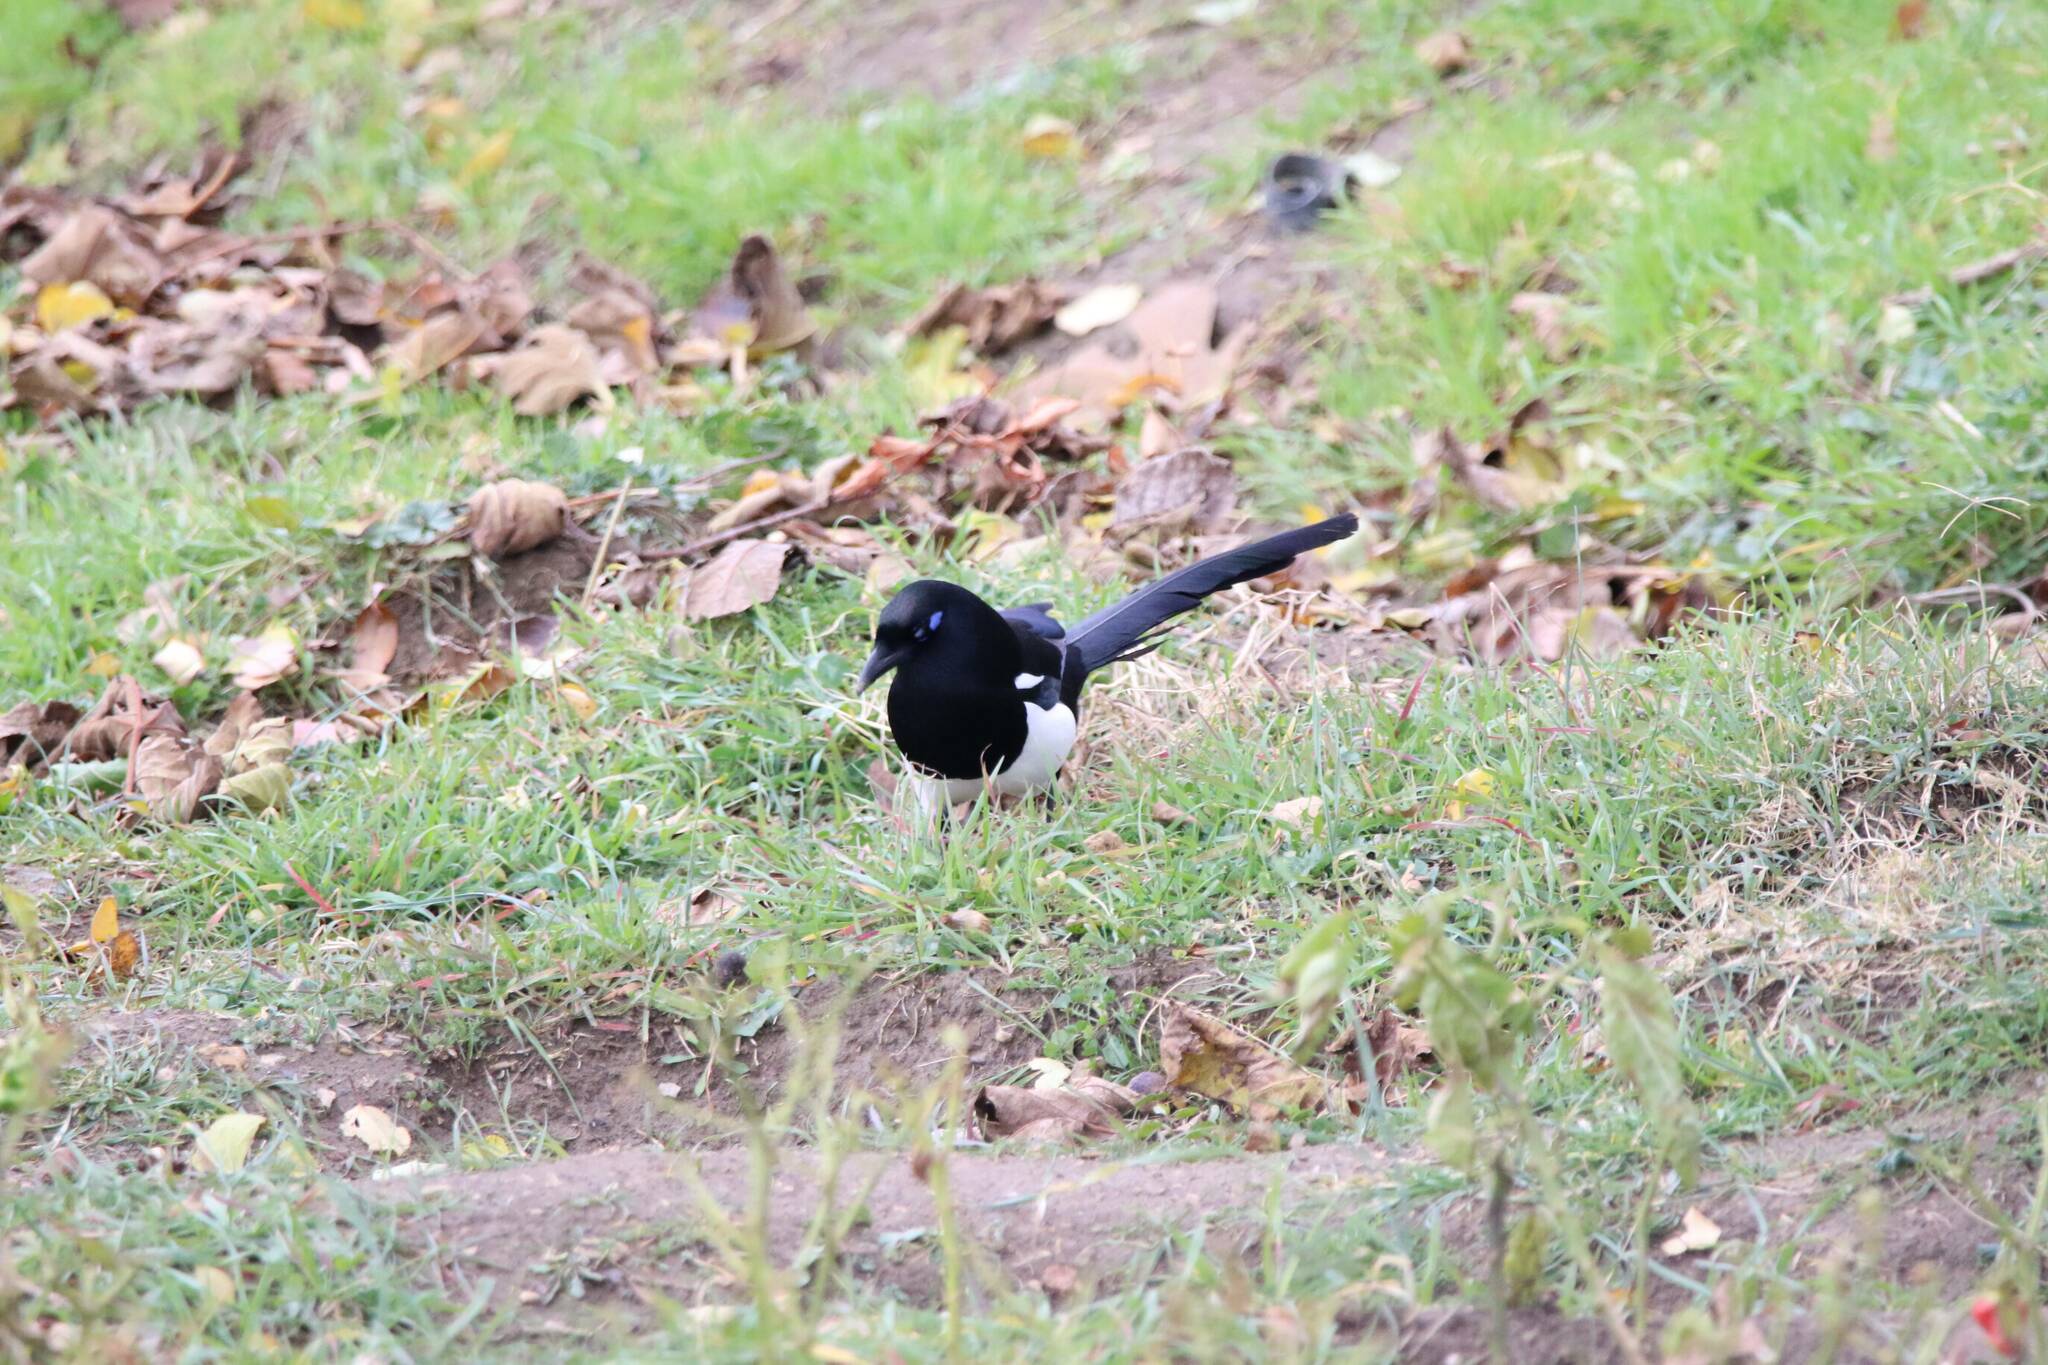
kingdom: Animalia
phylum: Chordata
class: Aves
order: Passeriformes
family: Corvidae
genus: Pica
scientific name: Pica mauritanica
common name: Maghreb magpie
